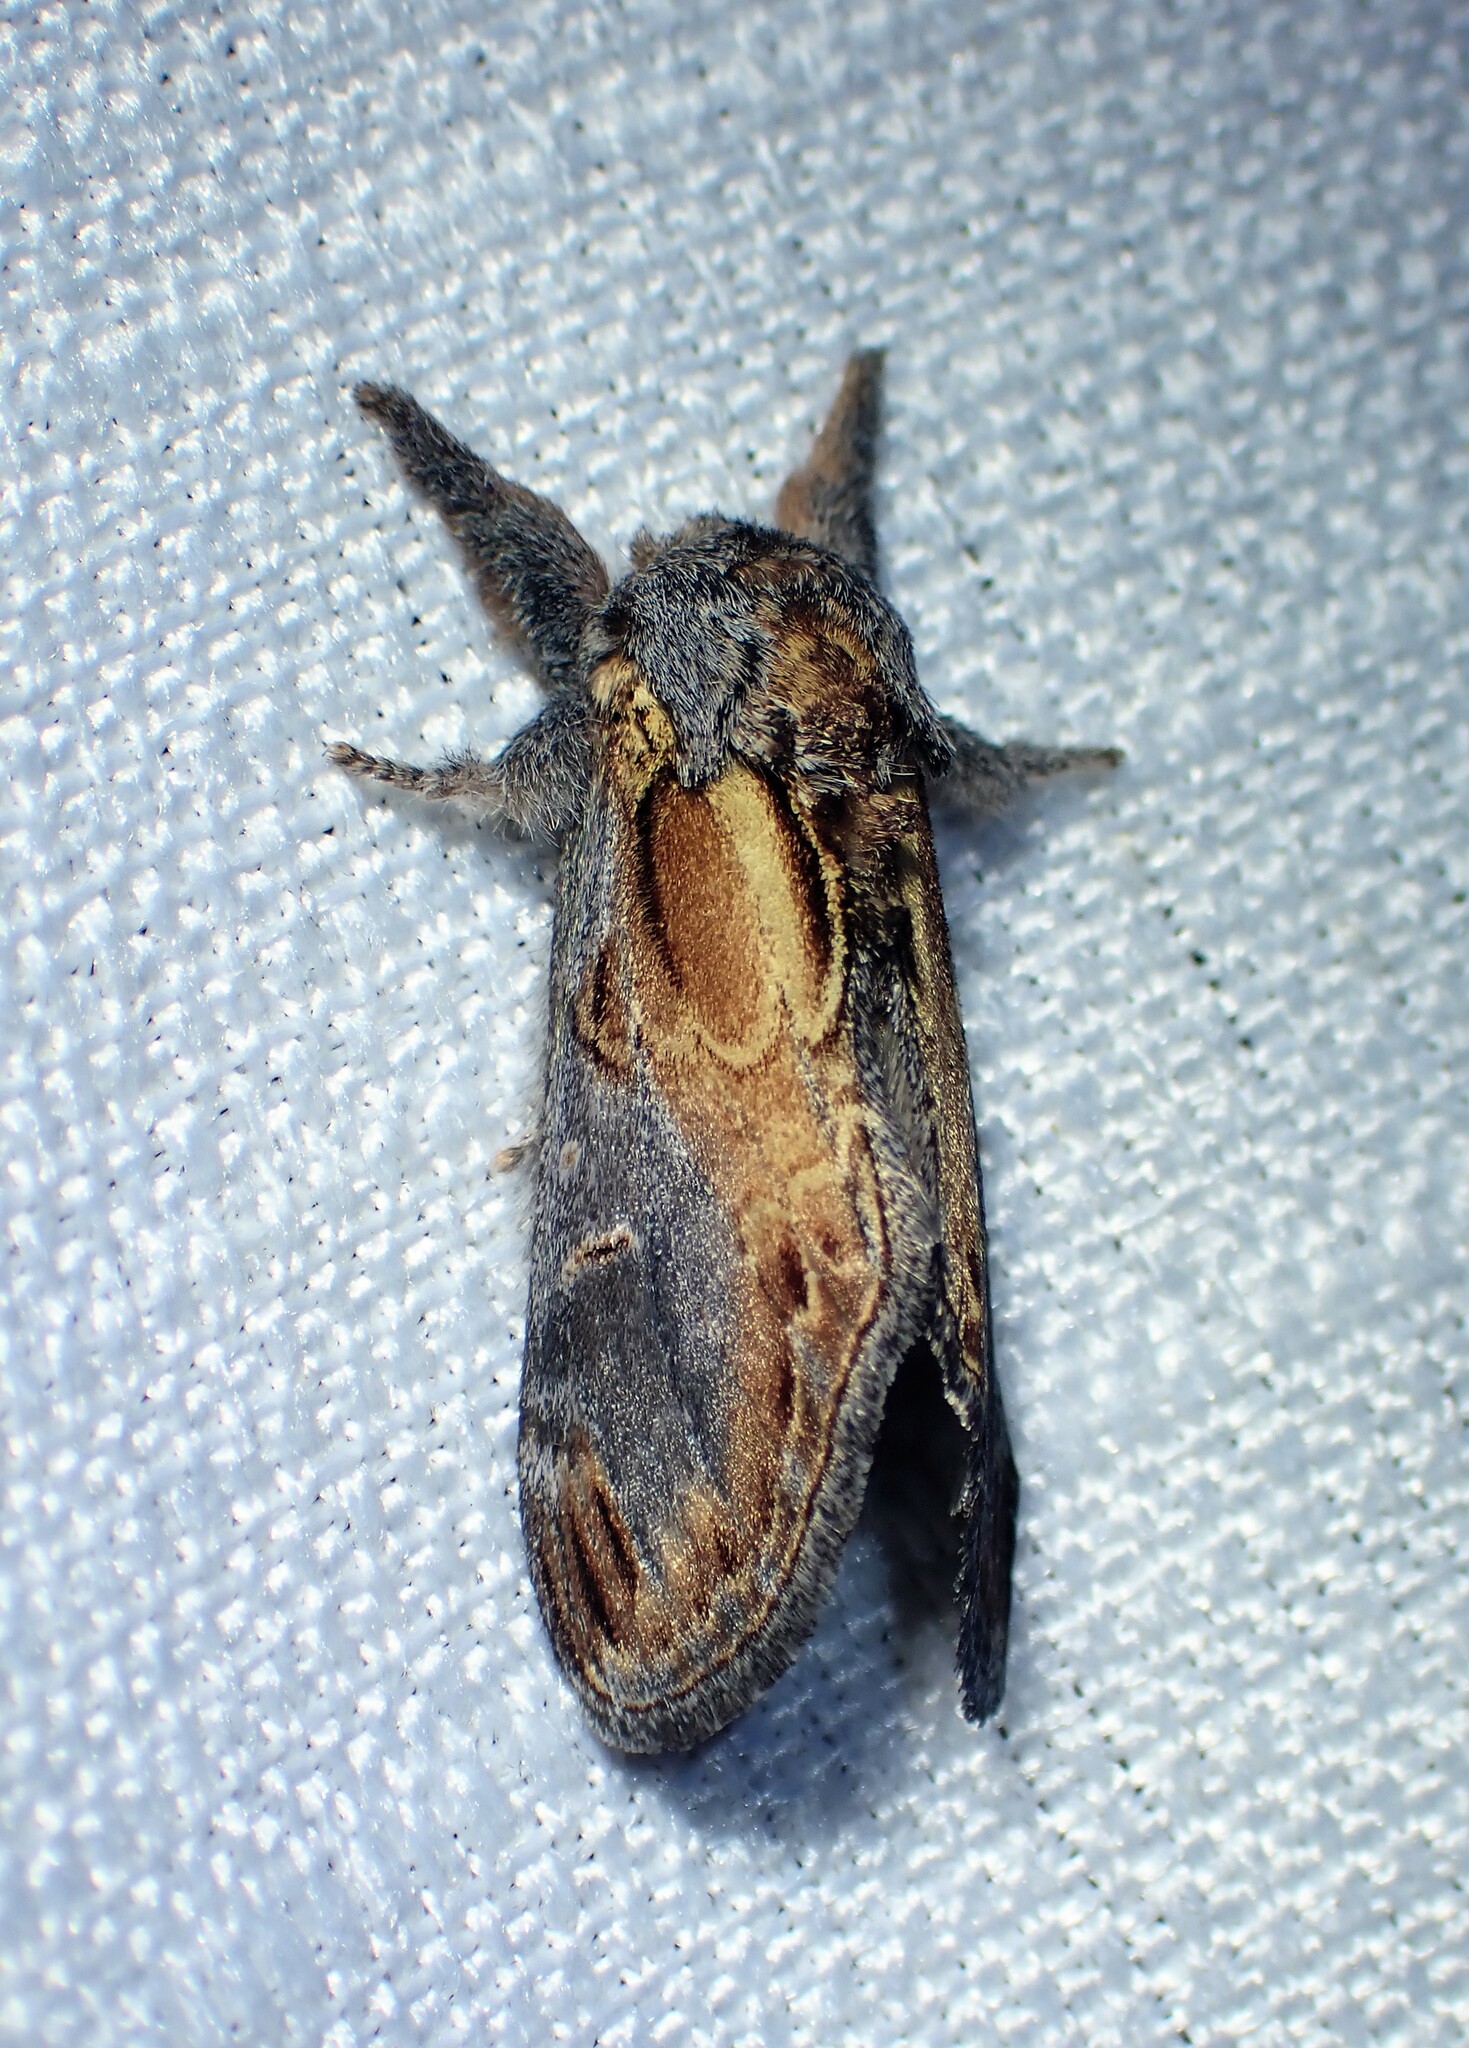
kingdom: Animalia
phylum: Arthropoda
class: Insecta
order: Lepidoptera
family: Notodontidae
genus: Notodonta
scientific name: Notodonta scitipennis
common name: Finned-willow prominent moth
